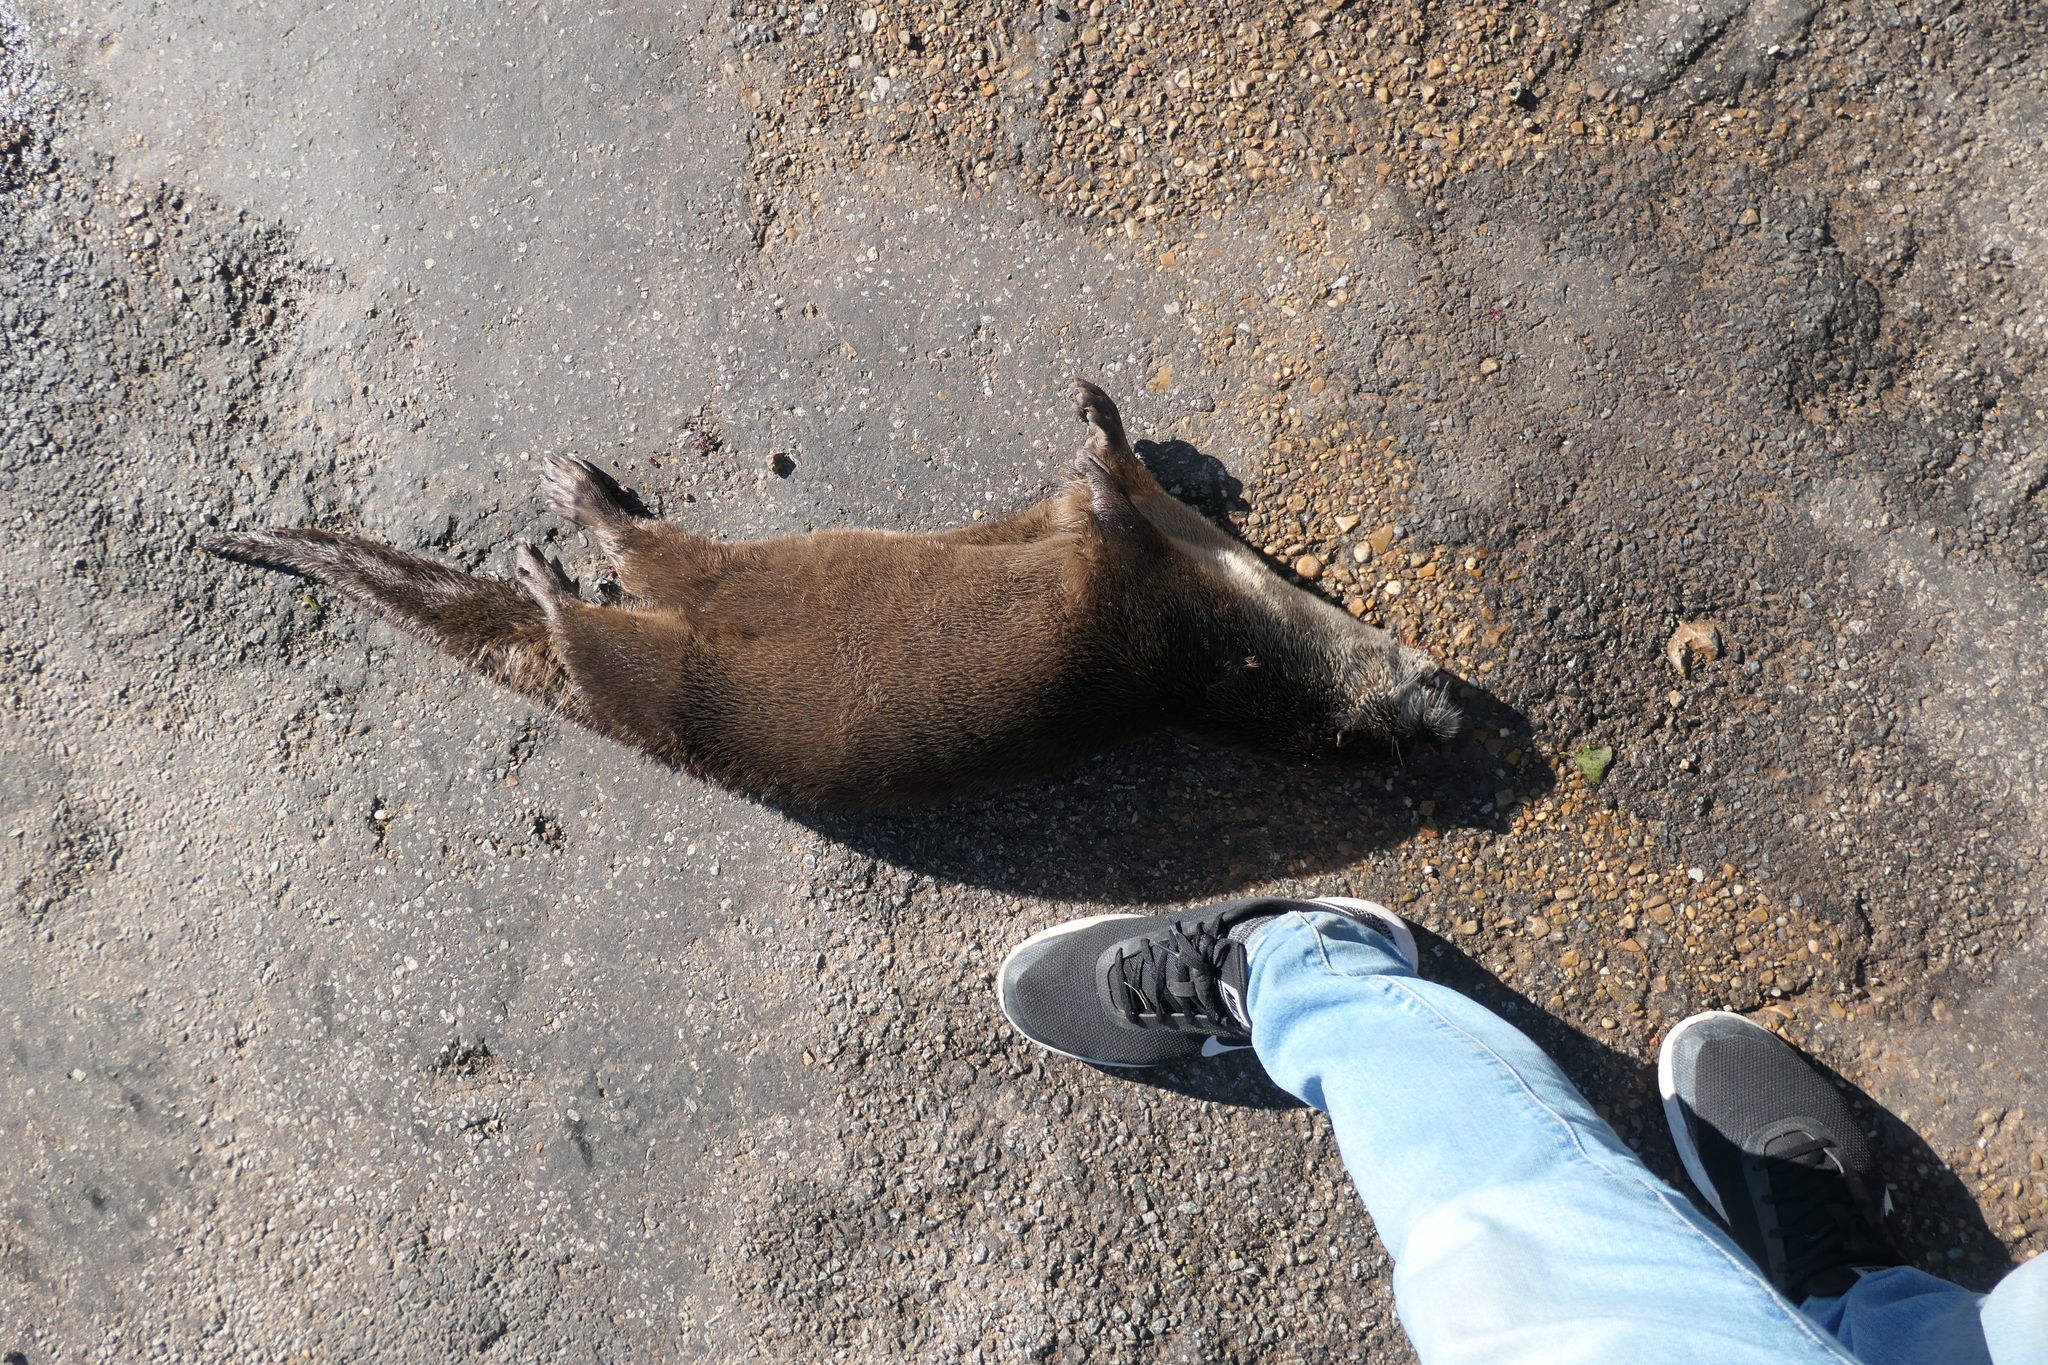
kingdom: Animalia
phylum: Chordata
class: Mammalia
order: Carnivora
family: Mustelidae
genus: Lontra
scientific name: Lontra canadensis
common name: North american river otter
